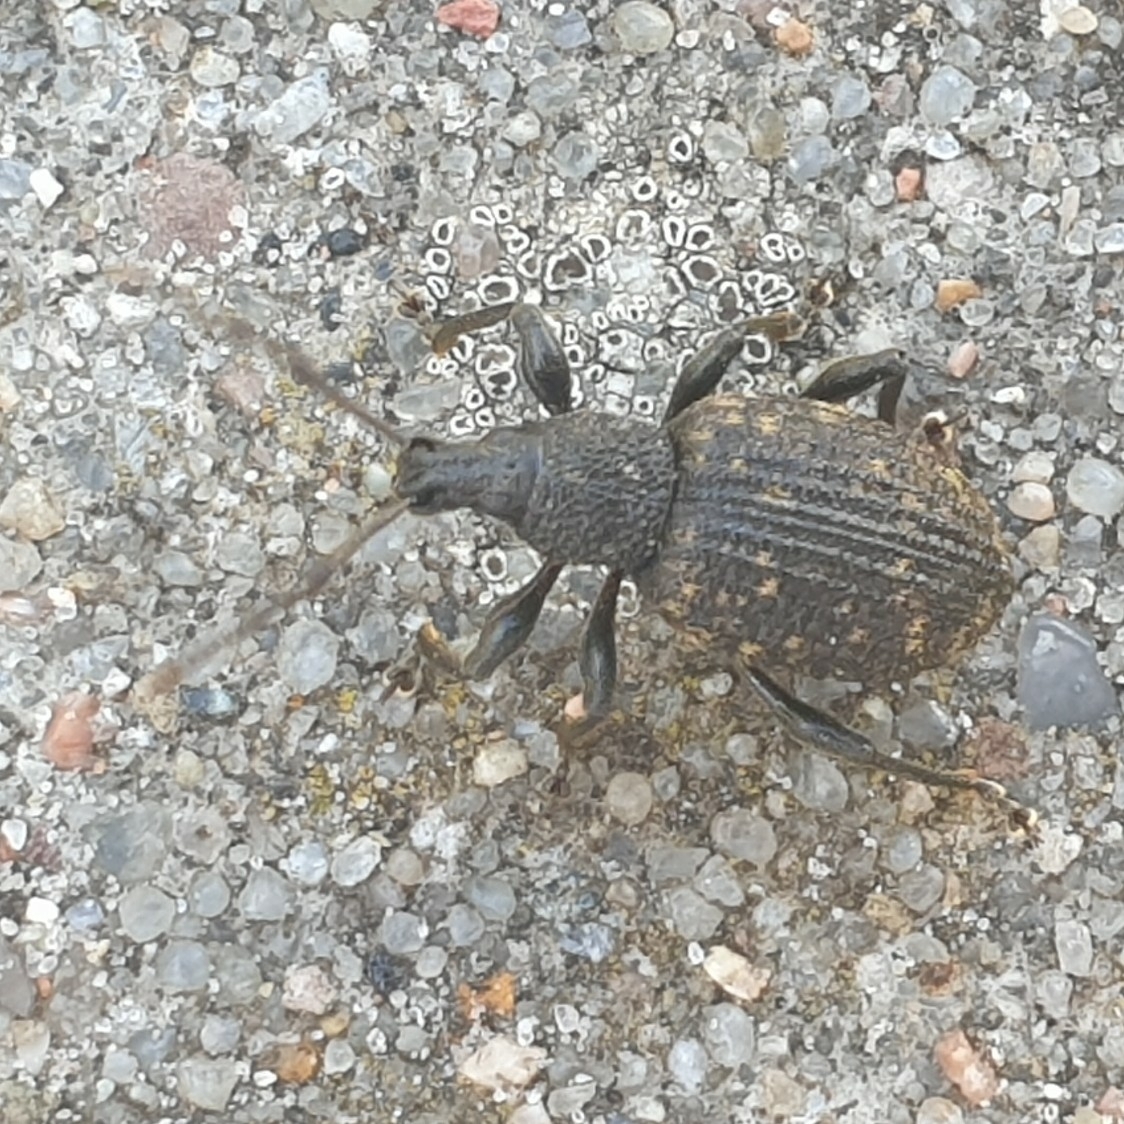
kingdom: Animalia
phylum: Arthropoda
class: Insecta
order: Coleoptera
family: Curculionidae
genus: Otiorhynchus
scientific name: Otiorhynchus sulcatus
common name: Black vine weevil
